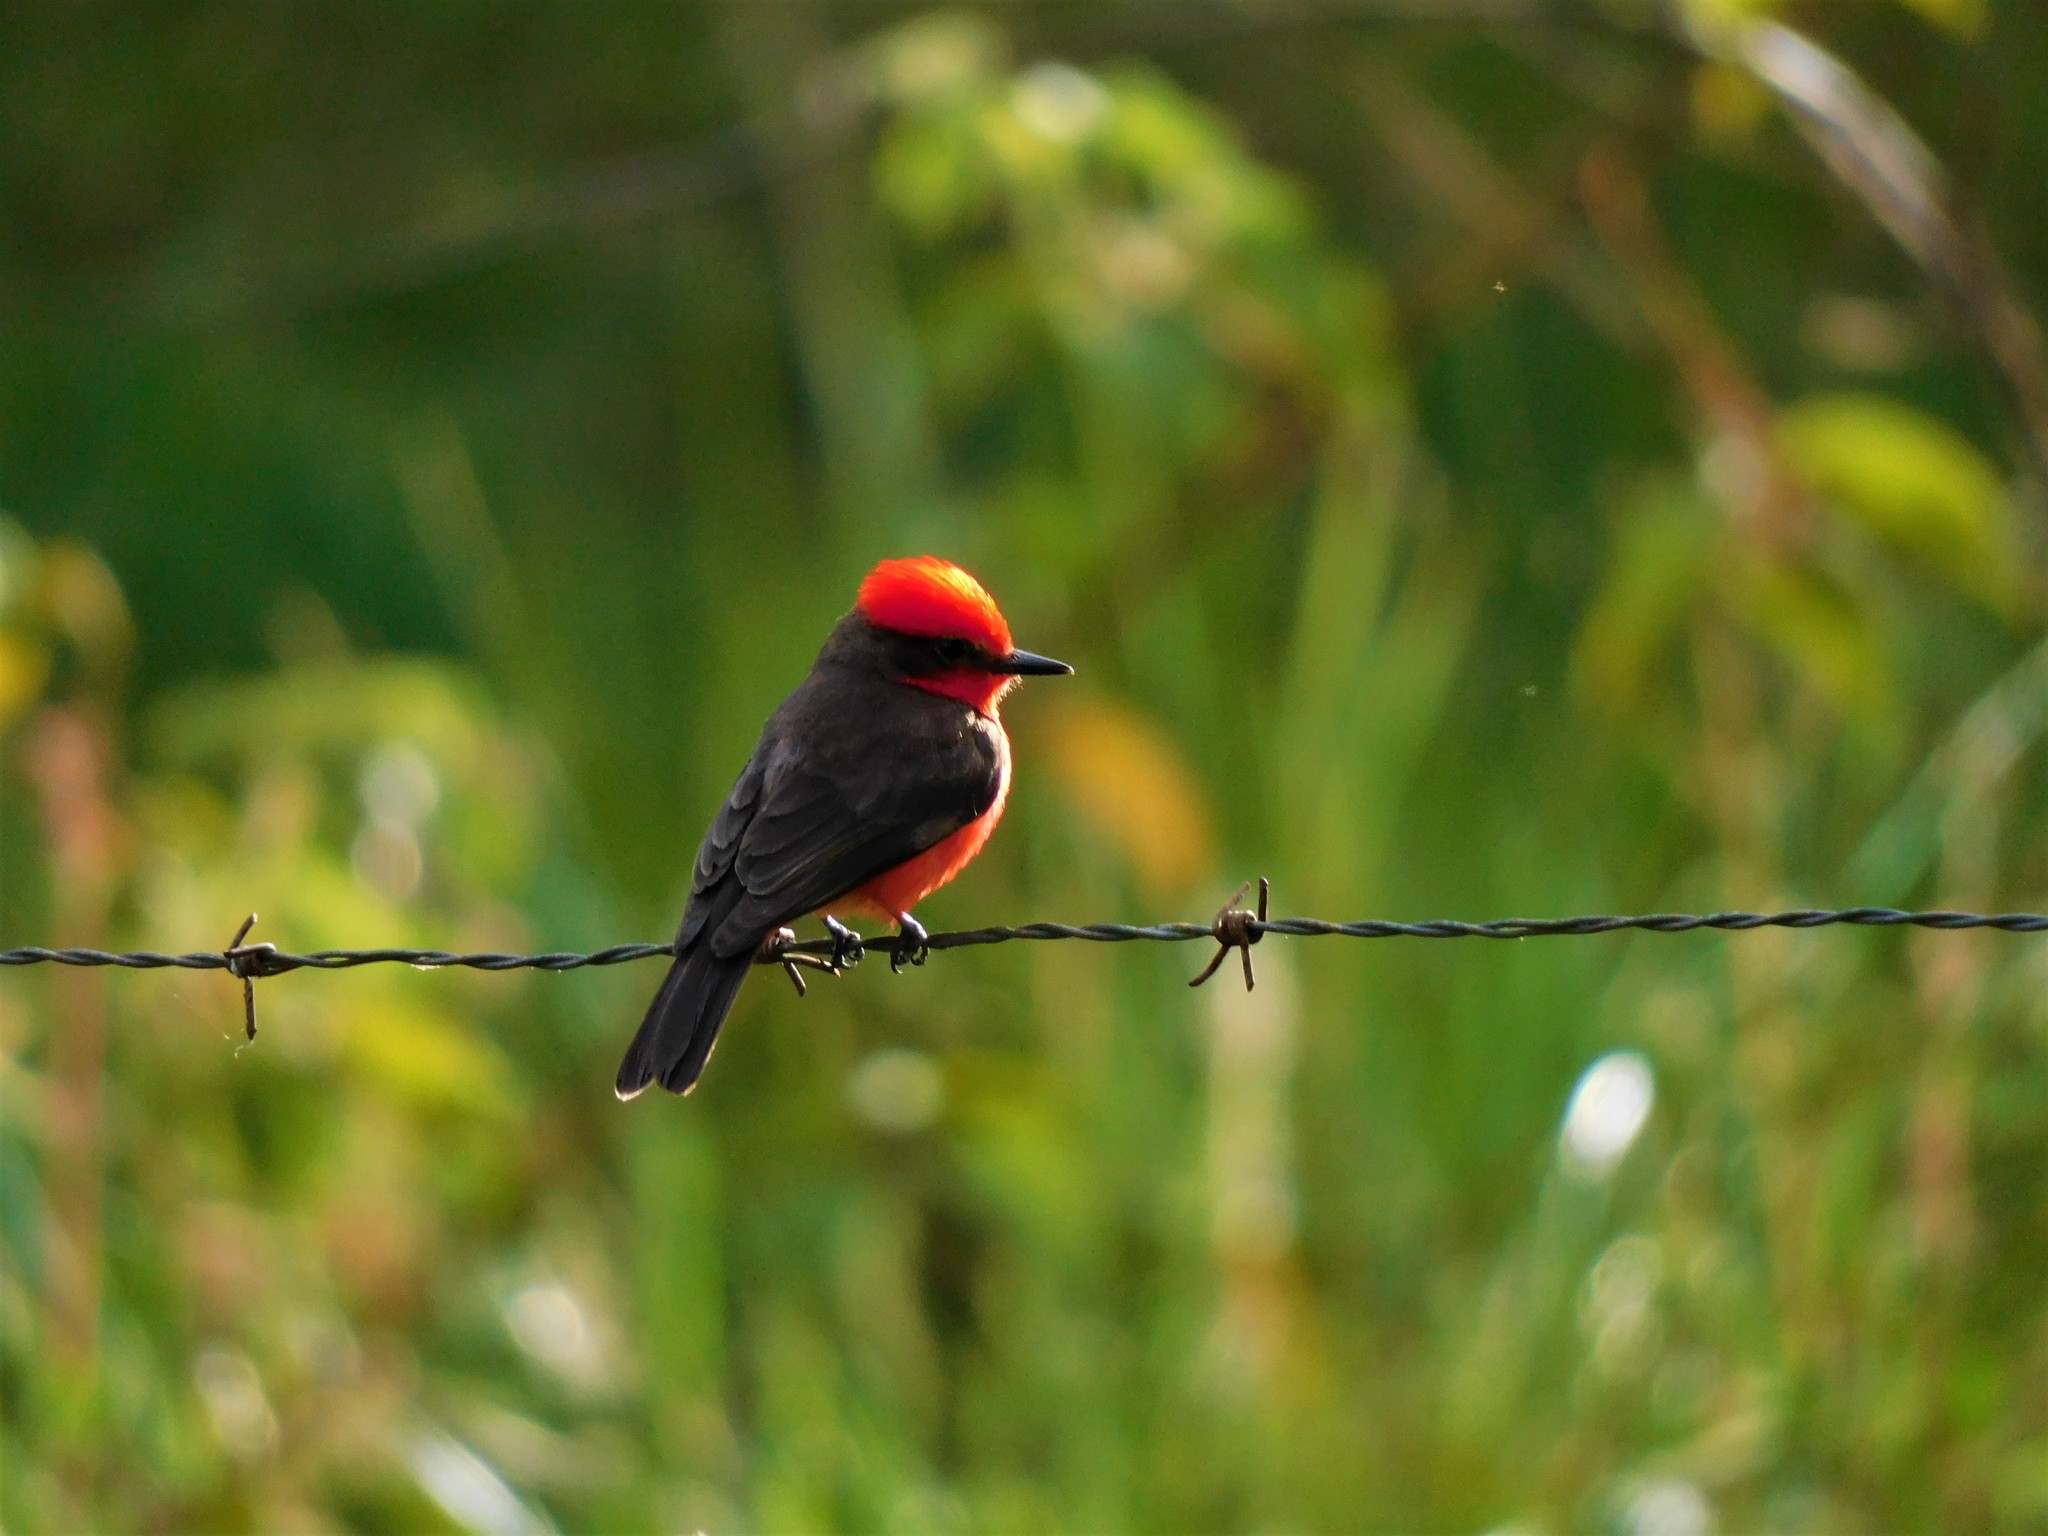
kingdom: Animalia
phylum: Chordata
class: Aves
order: Passeriformes
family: Tyrannidae
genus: Pyrocephalus
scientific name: Pyrocephalus rubinus
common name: Vermilion flycatcher
